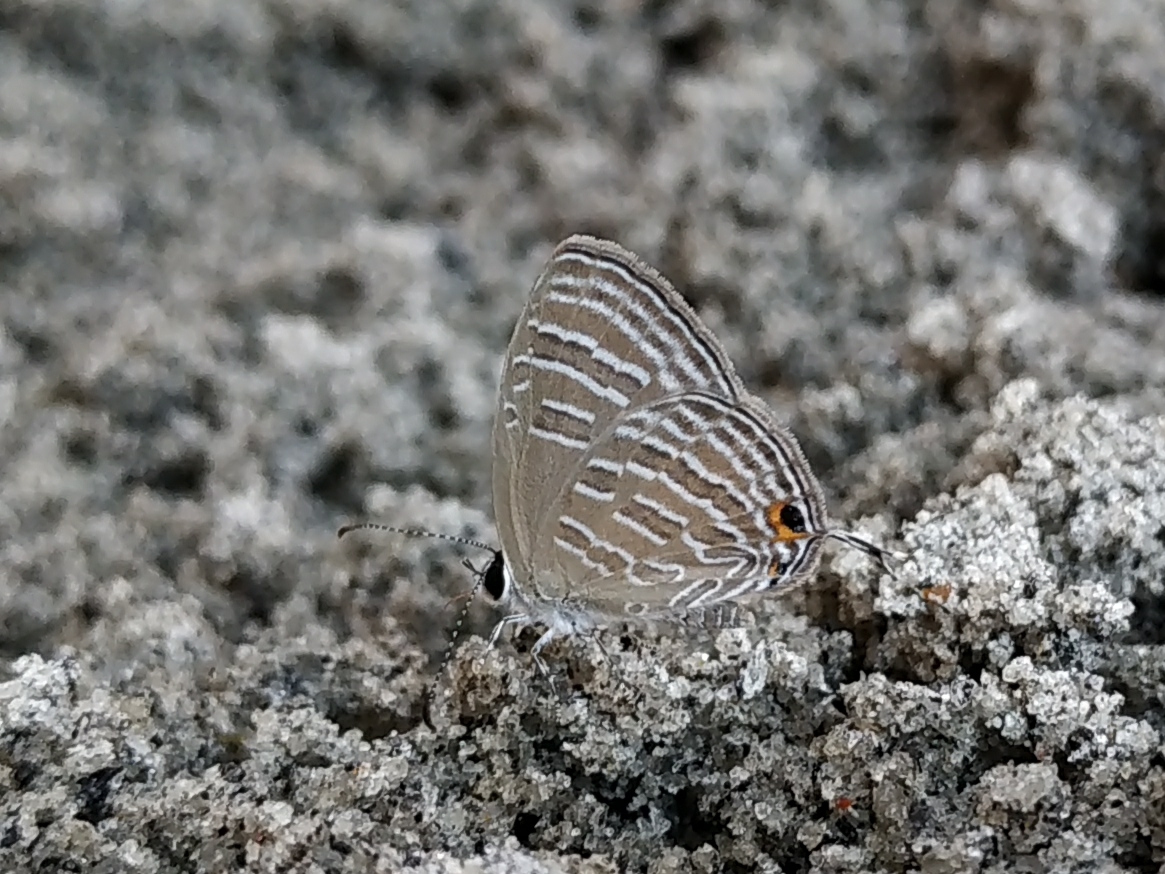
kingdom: Animalia
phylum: Arthropoda
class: Insecta
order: Lepidoptera
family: Lycaenidae
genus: Jamides
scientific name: Jamides celeno
